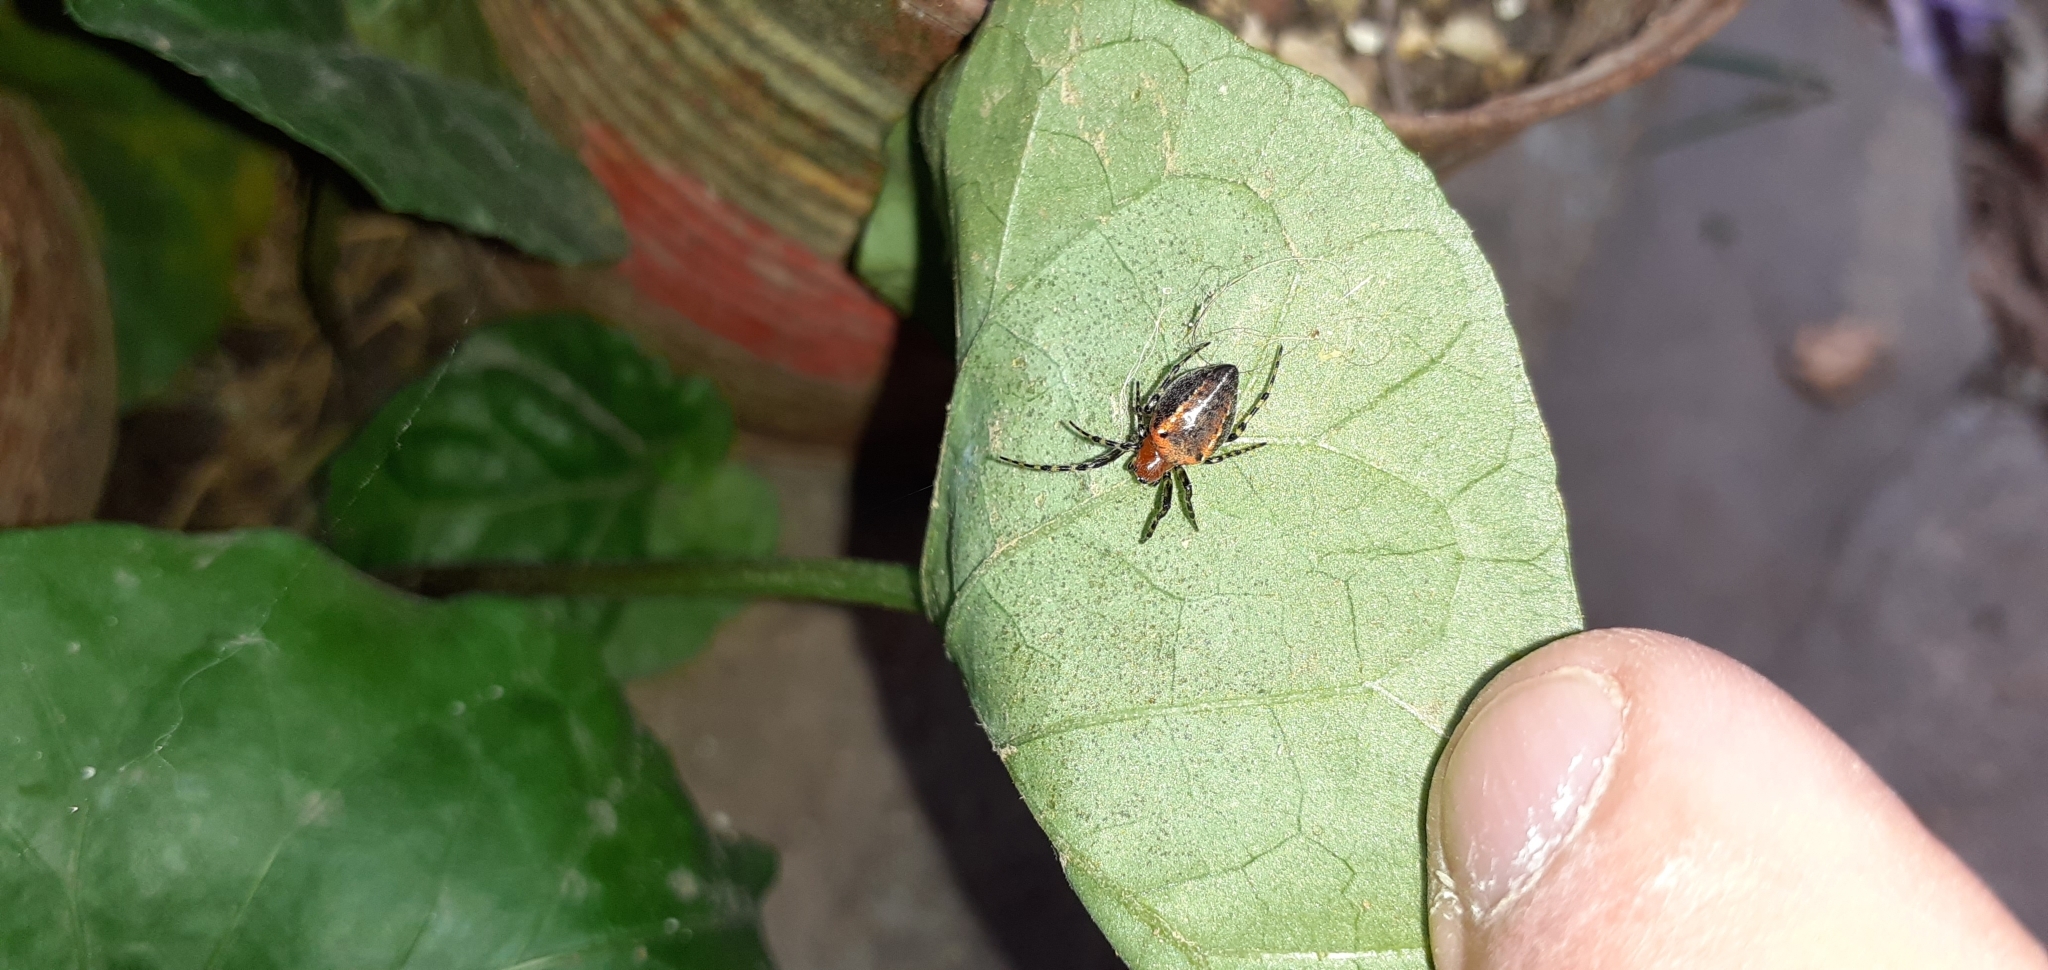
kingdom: Animalia
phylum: Arthropoda
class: Arachnida
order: Araneae
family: Araneidae
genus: Alpaida
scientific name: Alpaida gallardoi
